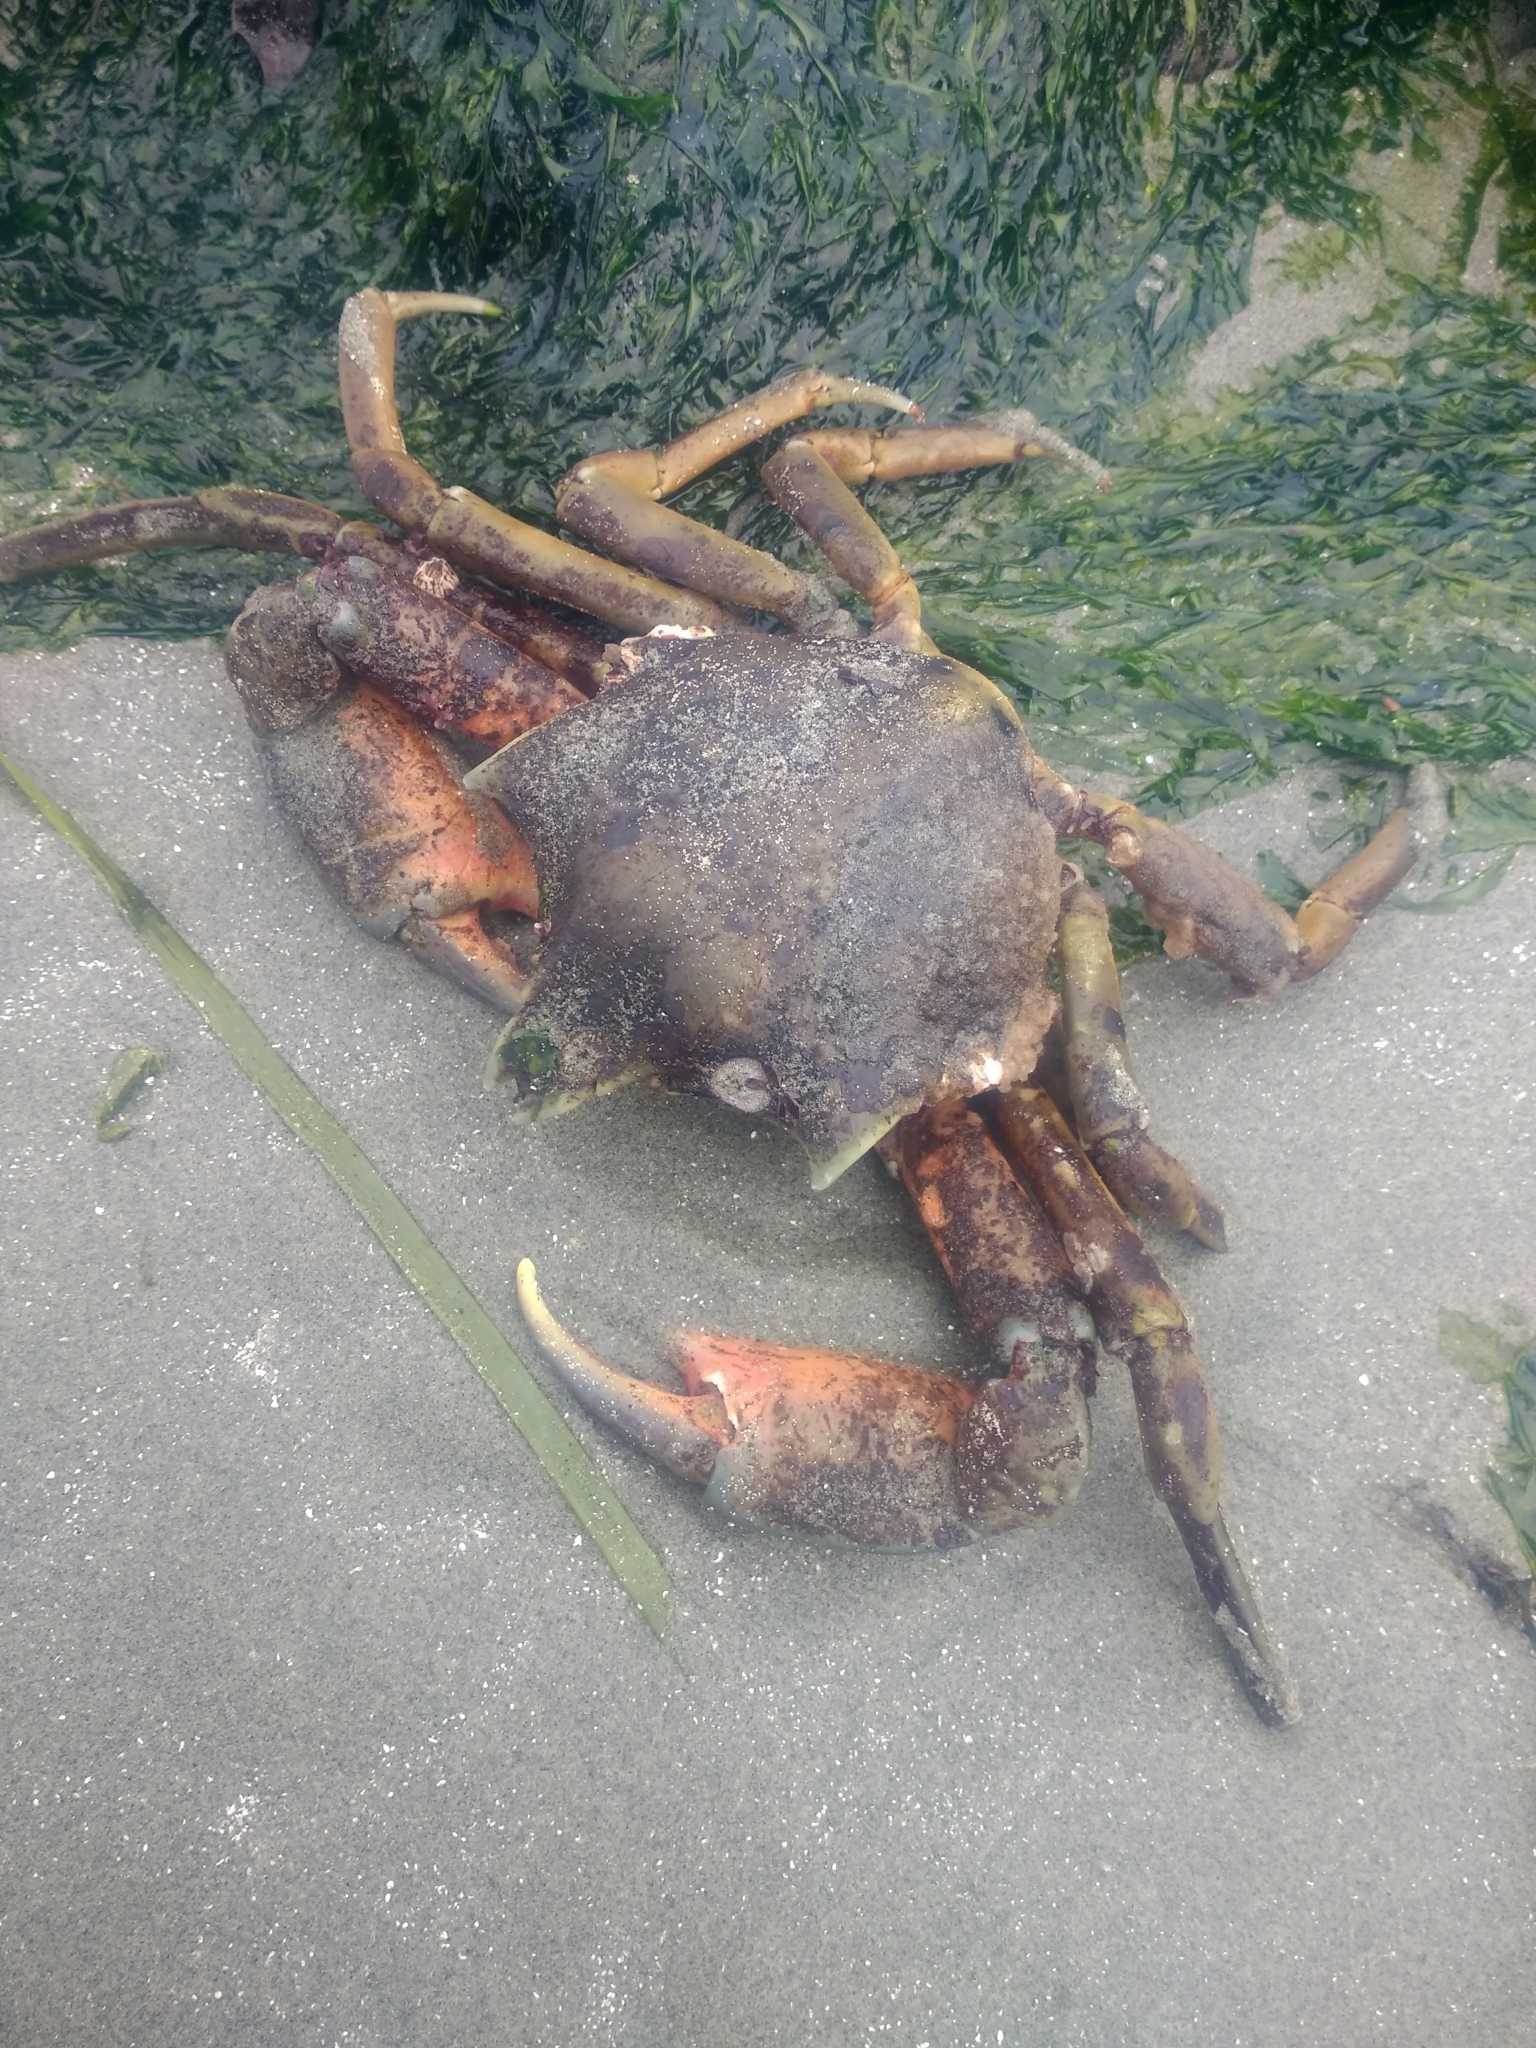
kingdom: Animalia
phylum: Arthropoda
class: Malacostraca
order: Decapoda
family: Epialtidae
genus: Pugettia
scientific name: Pugettia producta
